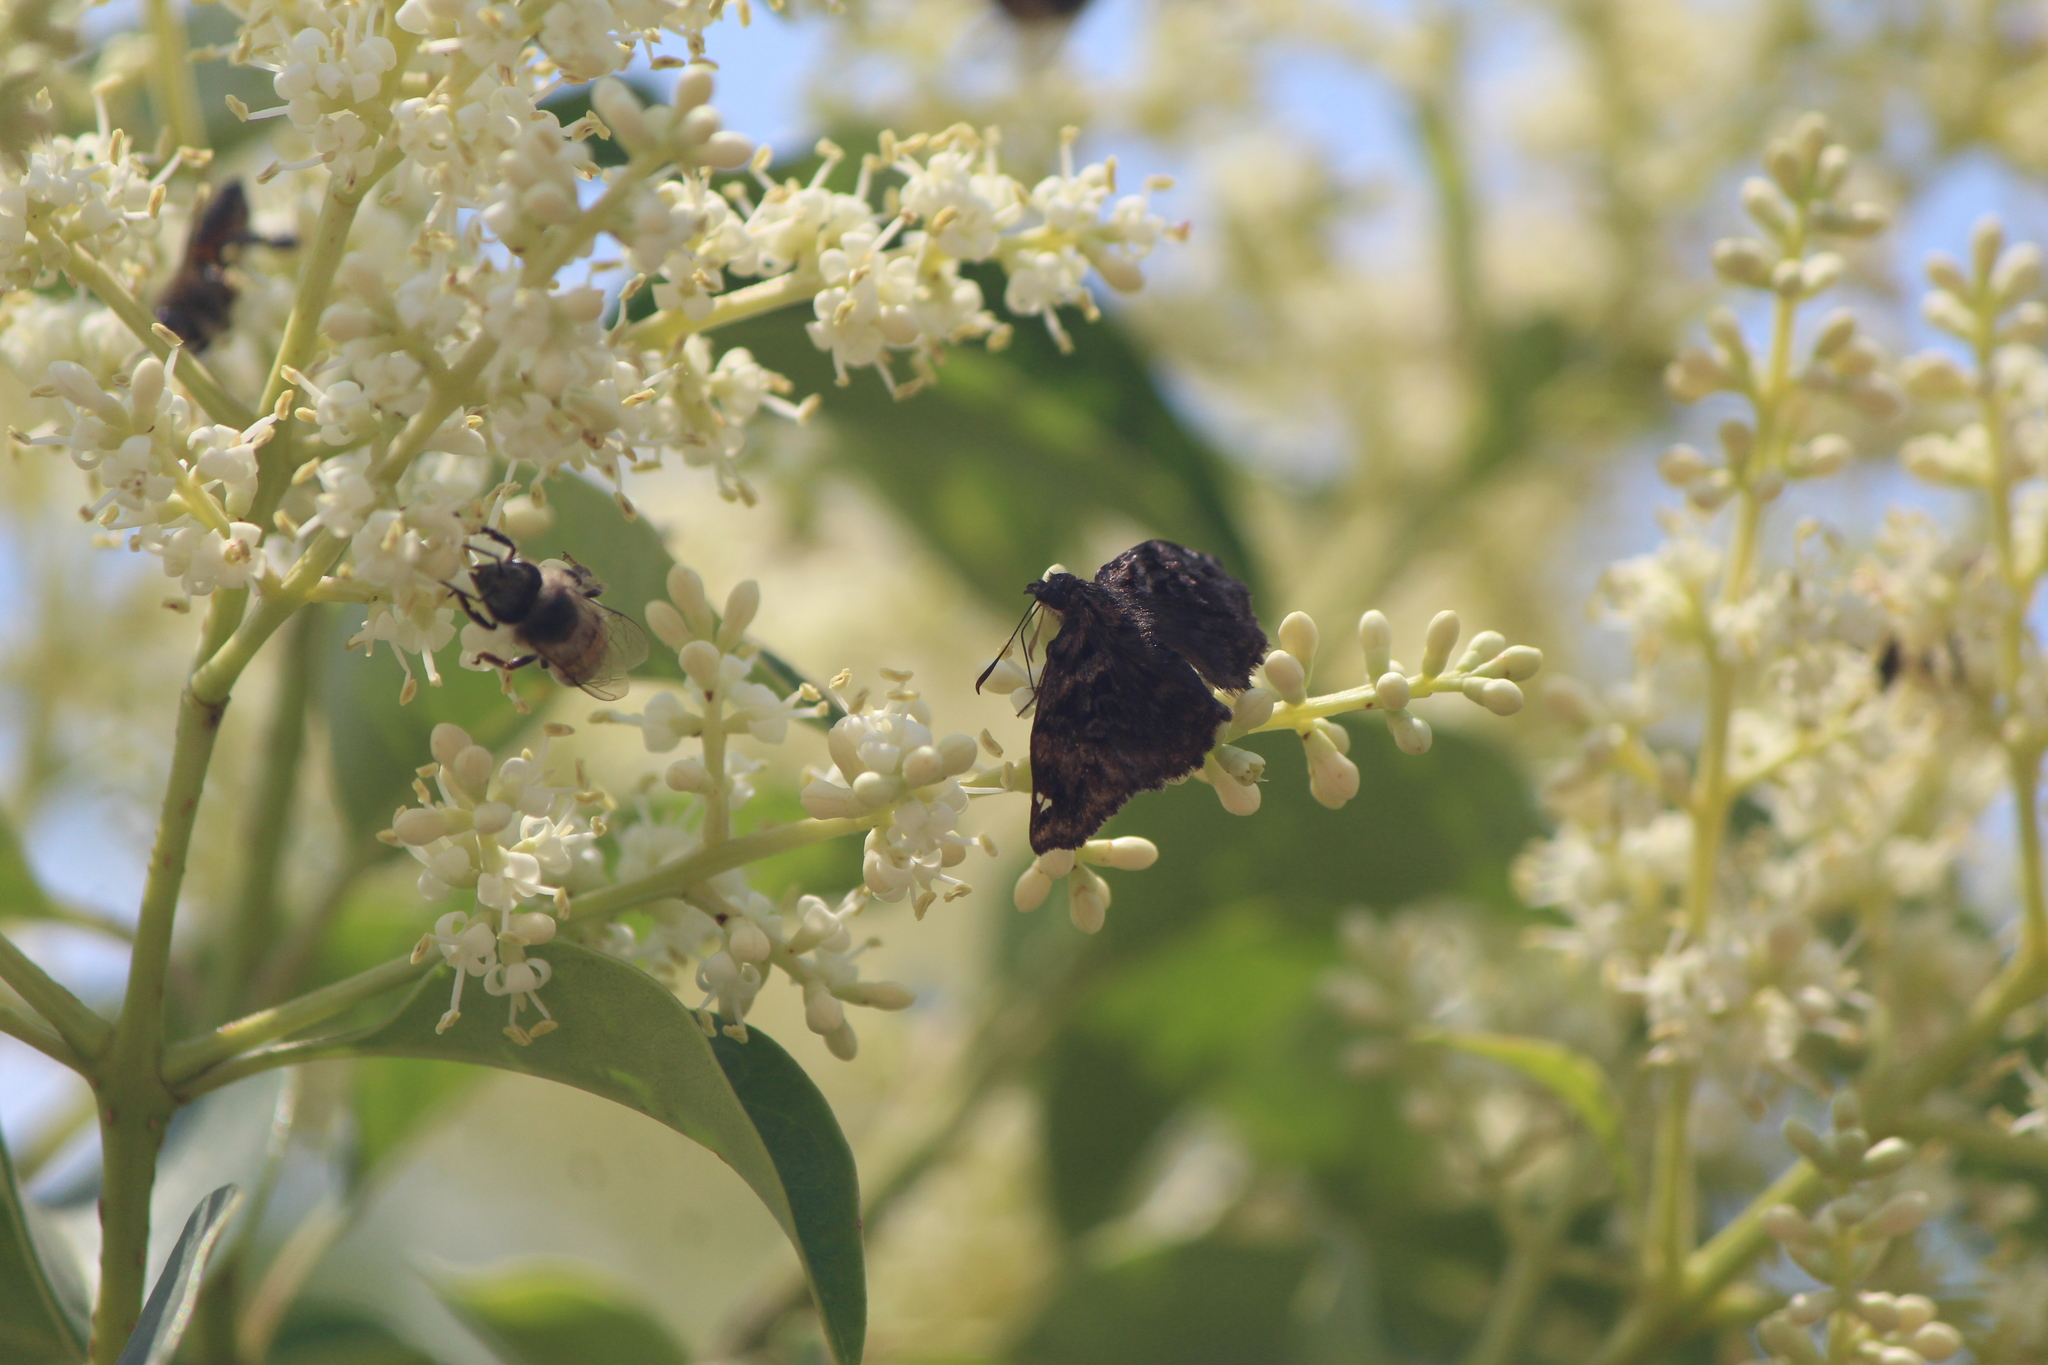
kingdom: Animalia
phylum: Arthropoda
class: Insecta
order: Lepidoptera
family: Hesperiidae
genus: Noctuana
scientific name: Noctuana stator
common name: Red-studded skipper
